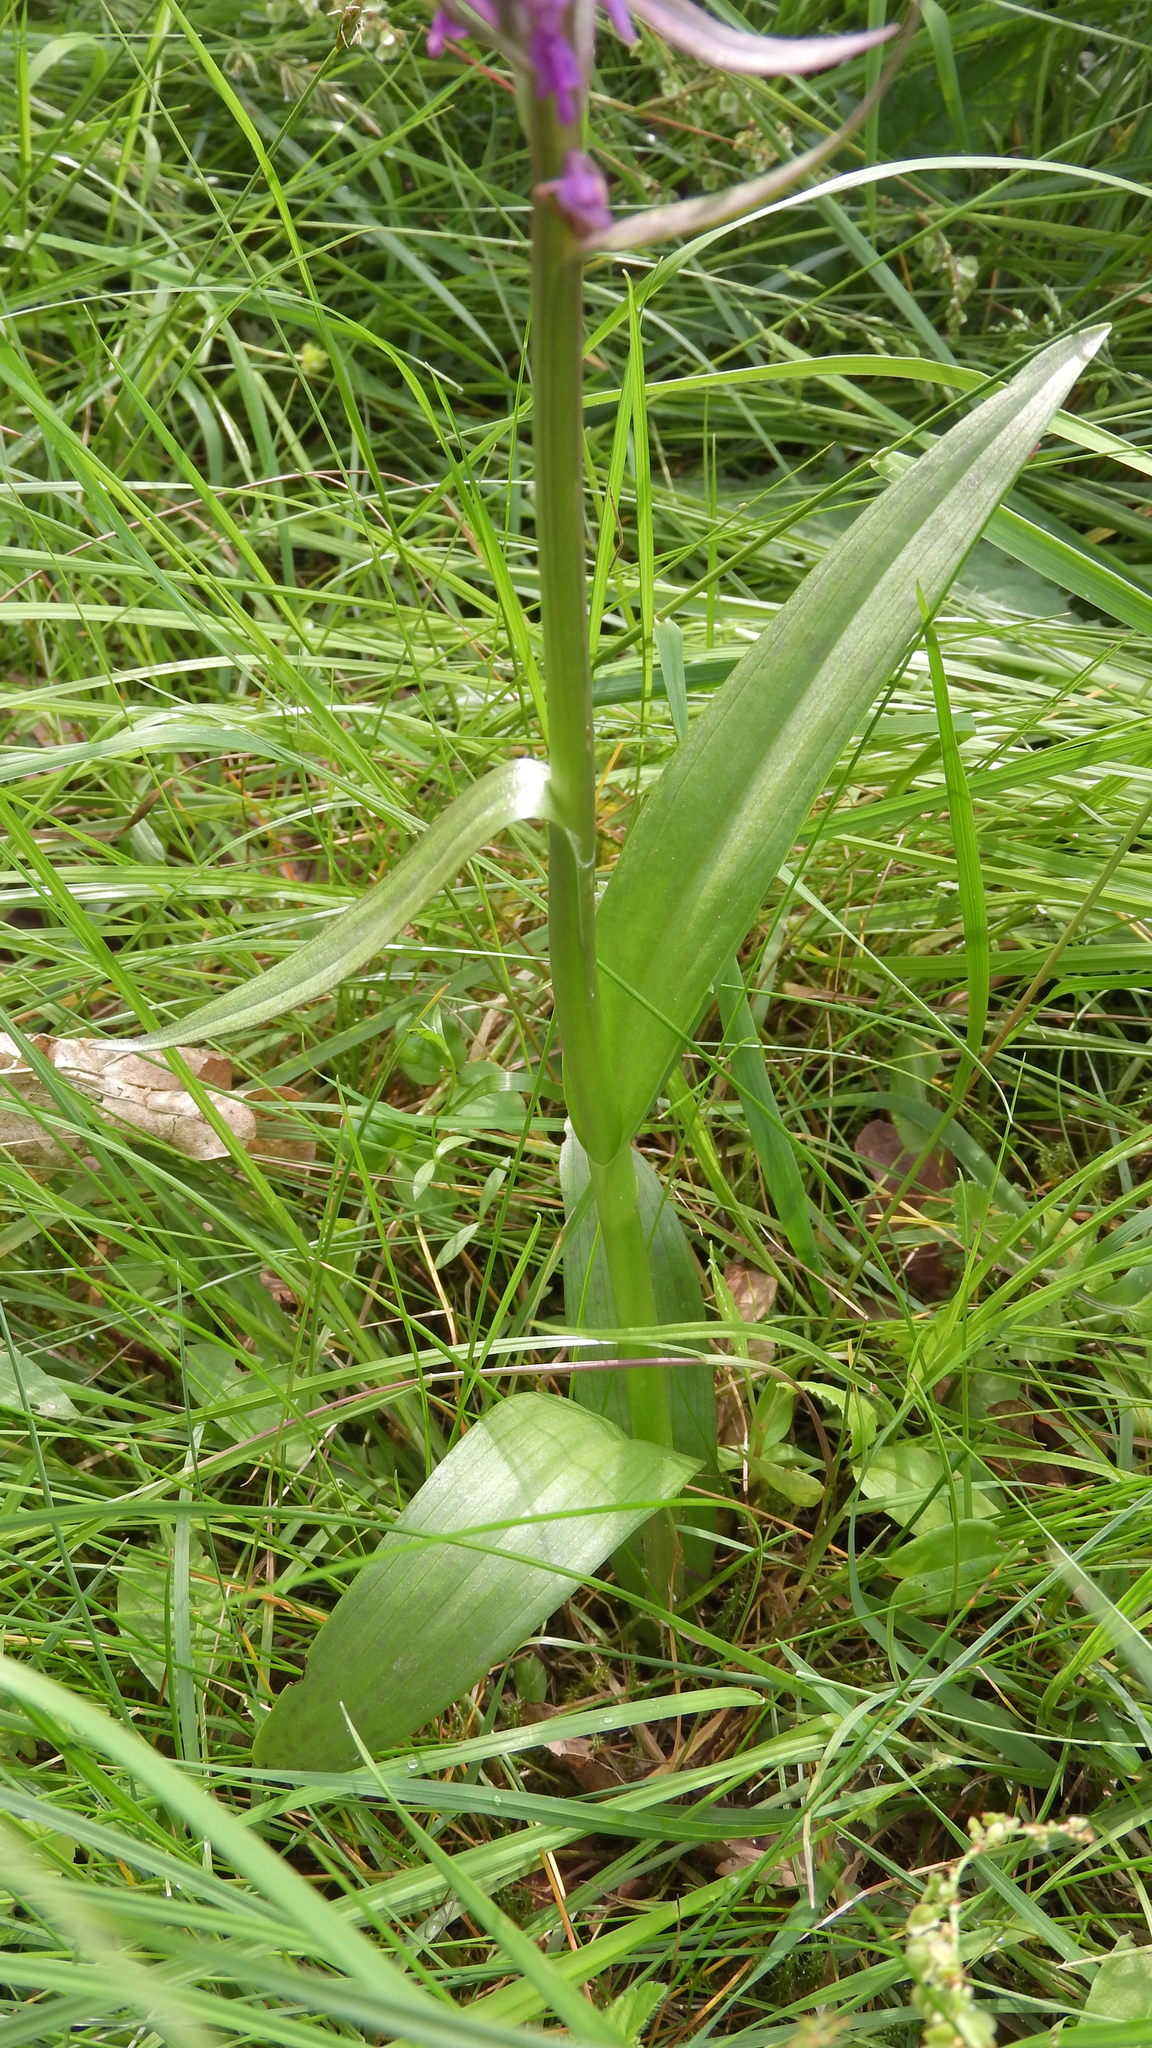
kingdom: Plantae
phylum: Tracheophyta
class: Liliopsida
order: Asparagales
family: Orchidaceae
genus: Dactylorhiza
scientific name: Dactylorhiza incarnata
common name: Early marsh-orchid
